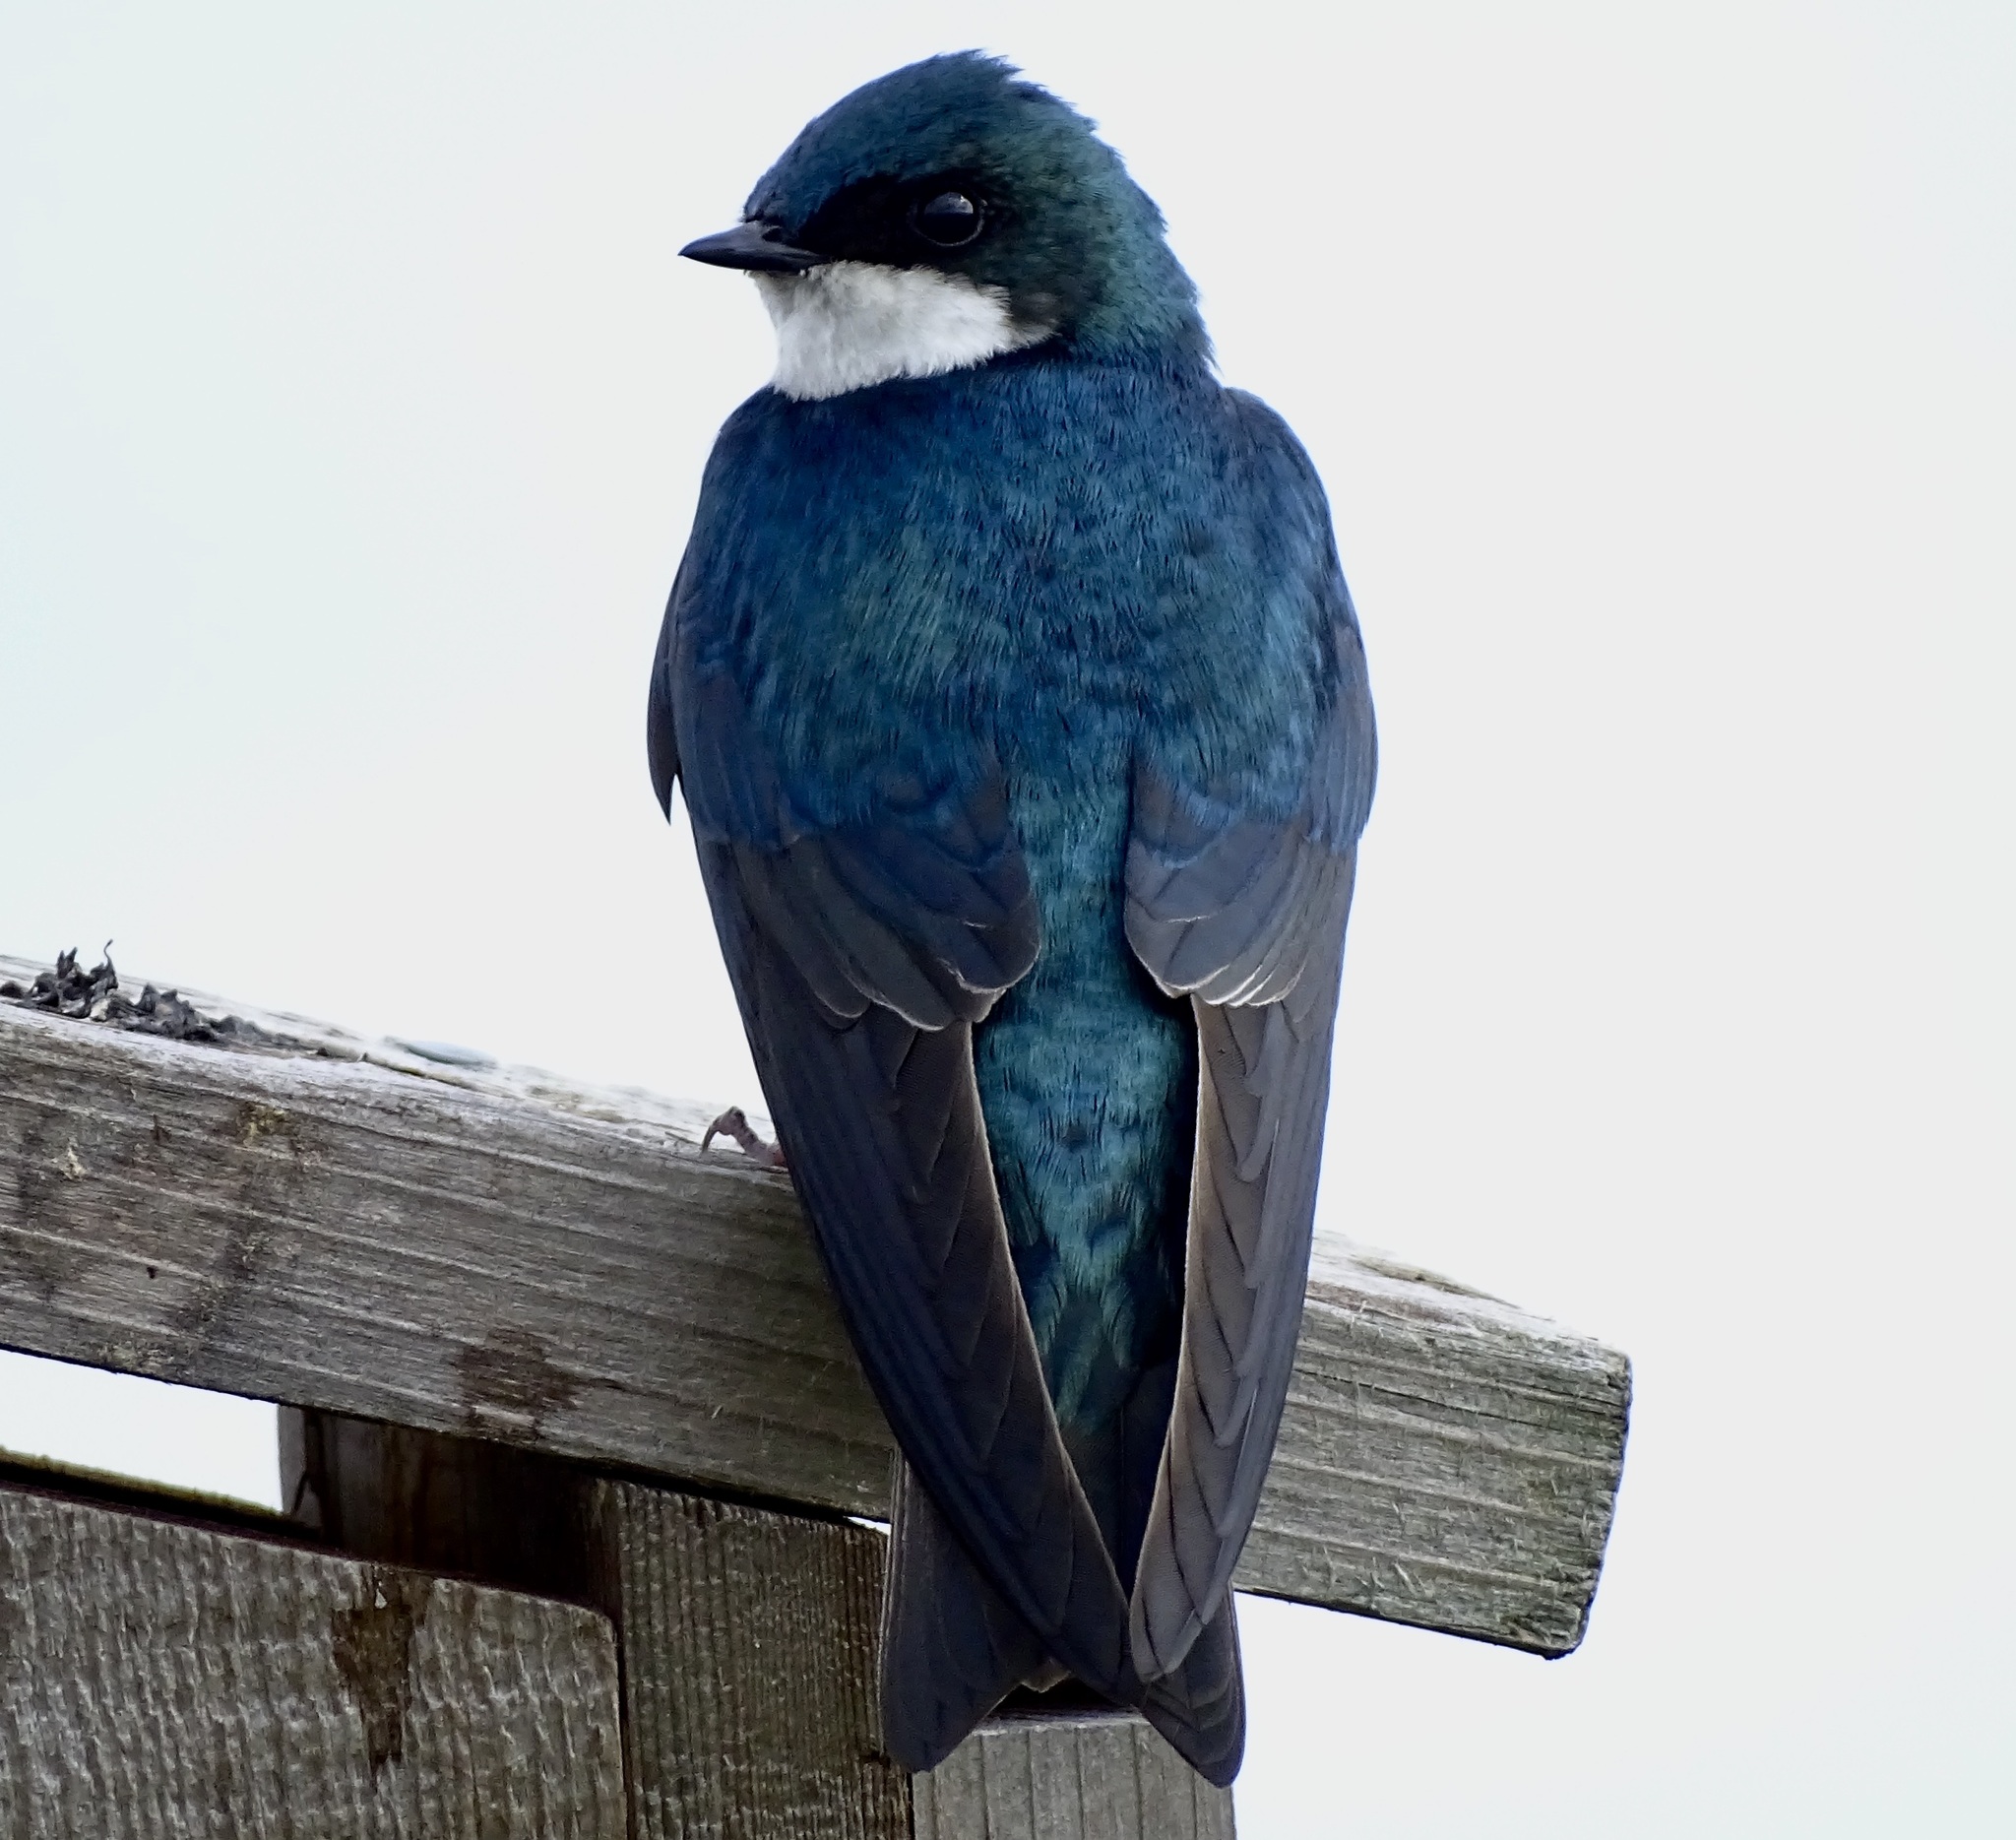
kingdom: Animalia
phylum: Chordata
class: Aves
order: Passeriformes
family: Hirundinidae
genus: Tachycineta
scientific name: Tachycineta bicolor
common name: Tree swallow
